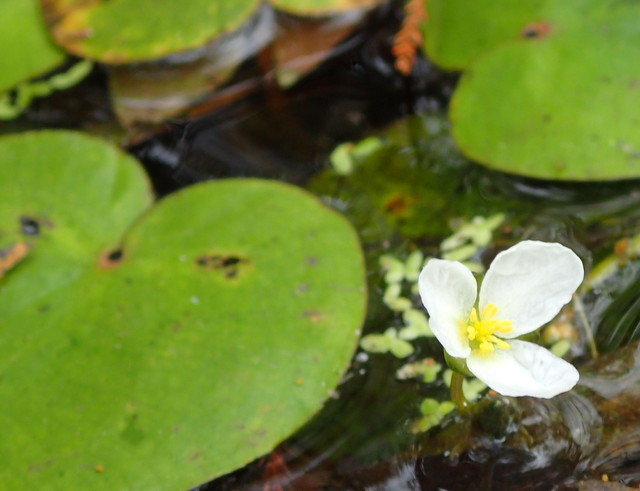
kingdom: Plantae
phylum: Tracheophyta
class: Liliopsida
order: Alismatales
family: Alismataceae
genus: Sagittaria
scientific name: Sagittaria subulata
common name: Narrow-leaved arrowhead
